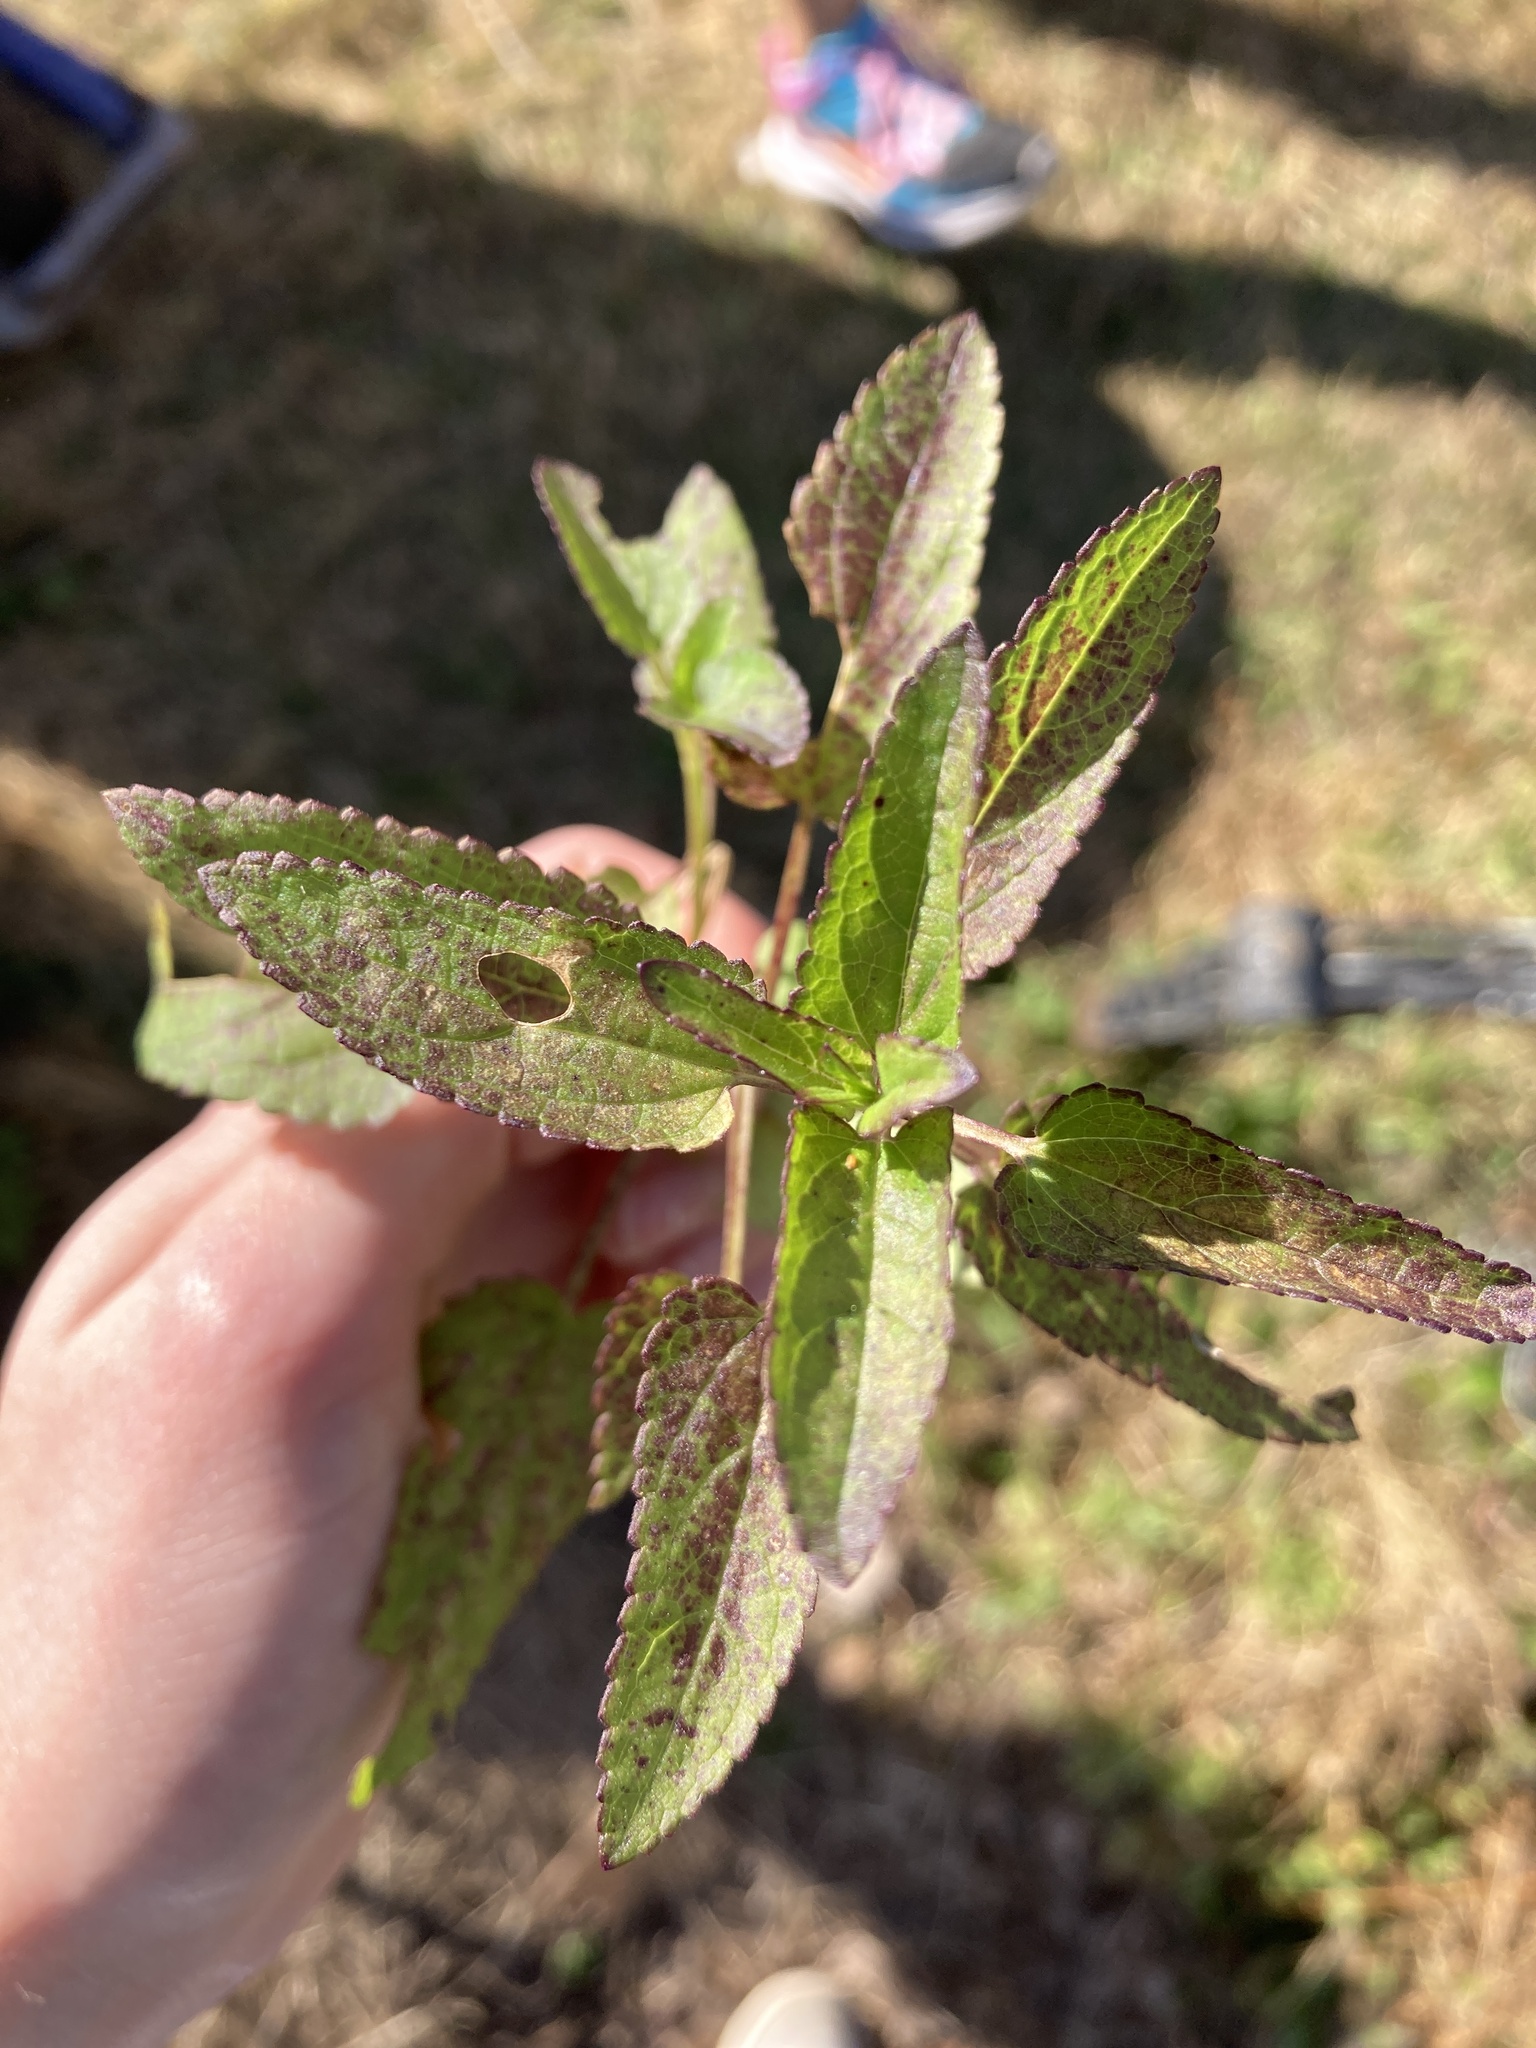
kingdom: Plantae
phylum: Tracheophyta
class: Magnoliopsida
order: Lamiales
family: Lamiaceae
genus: Stachys
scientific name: Stachys floridana
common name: Florida betony
